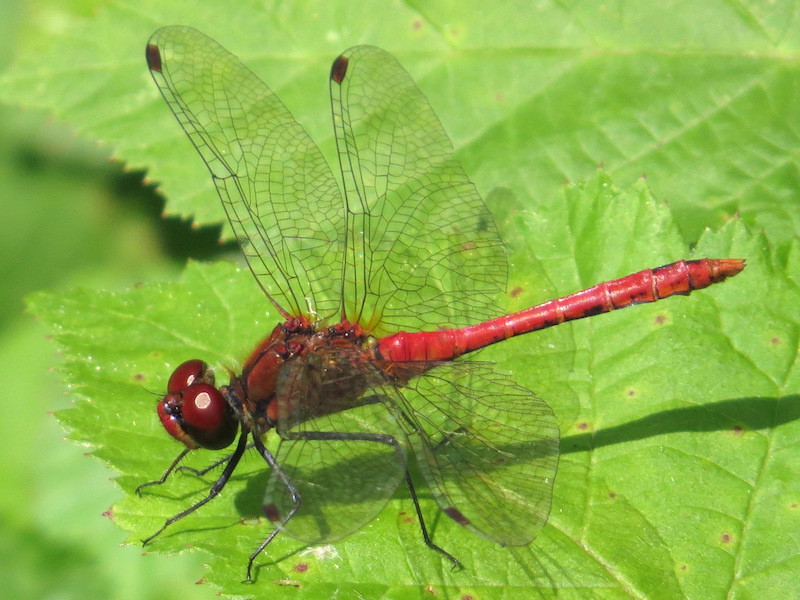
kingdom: Animalia
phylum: Arthropoda
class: Insecta
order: Odonata
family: Libellulidae
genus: Sympetrum
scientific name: Sympetrum sanguineum
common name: Ruddy darter
